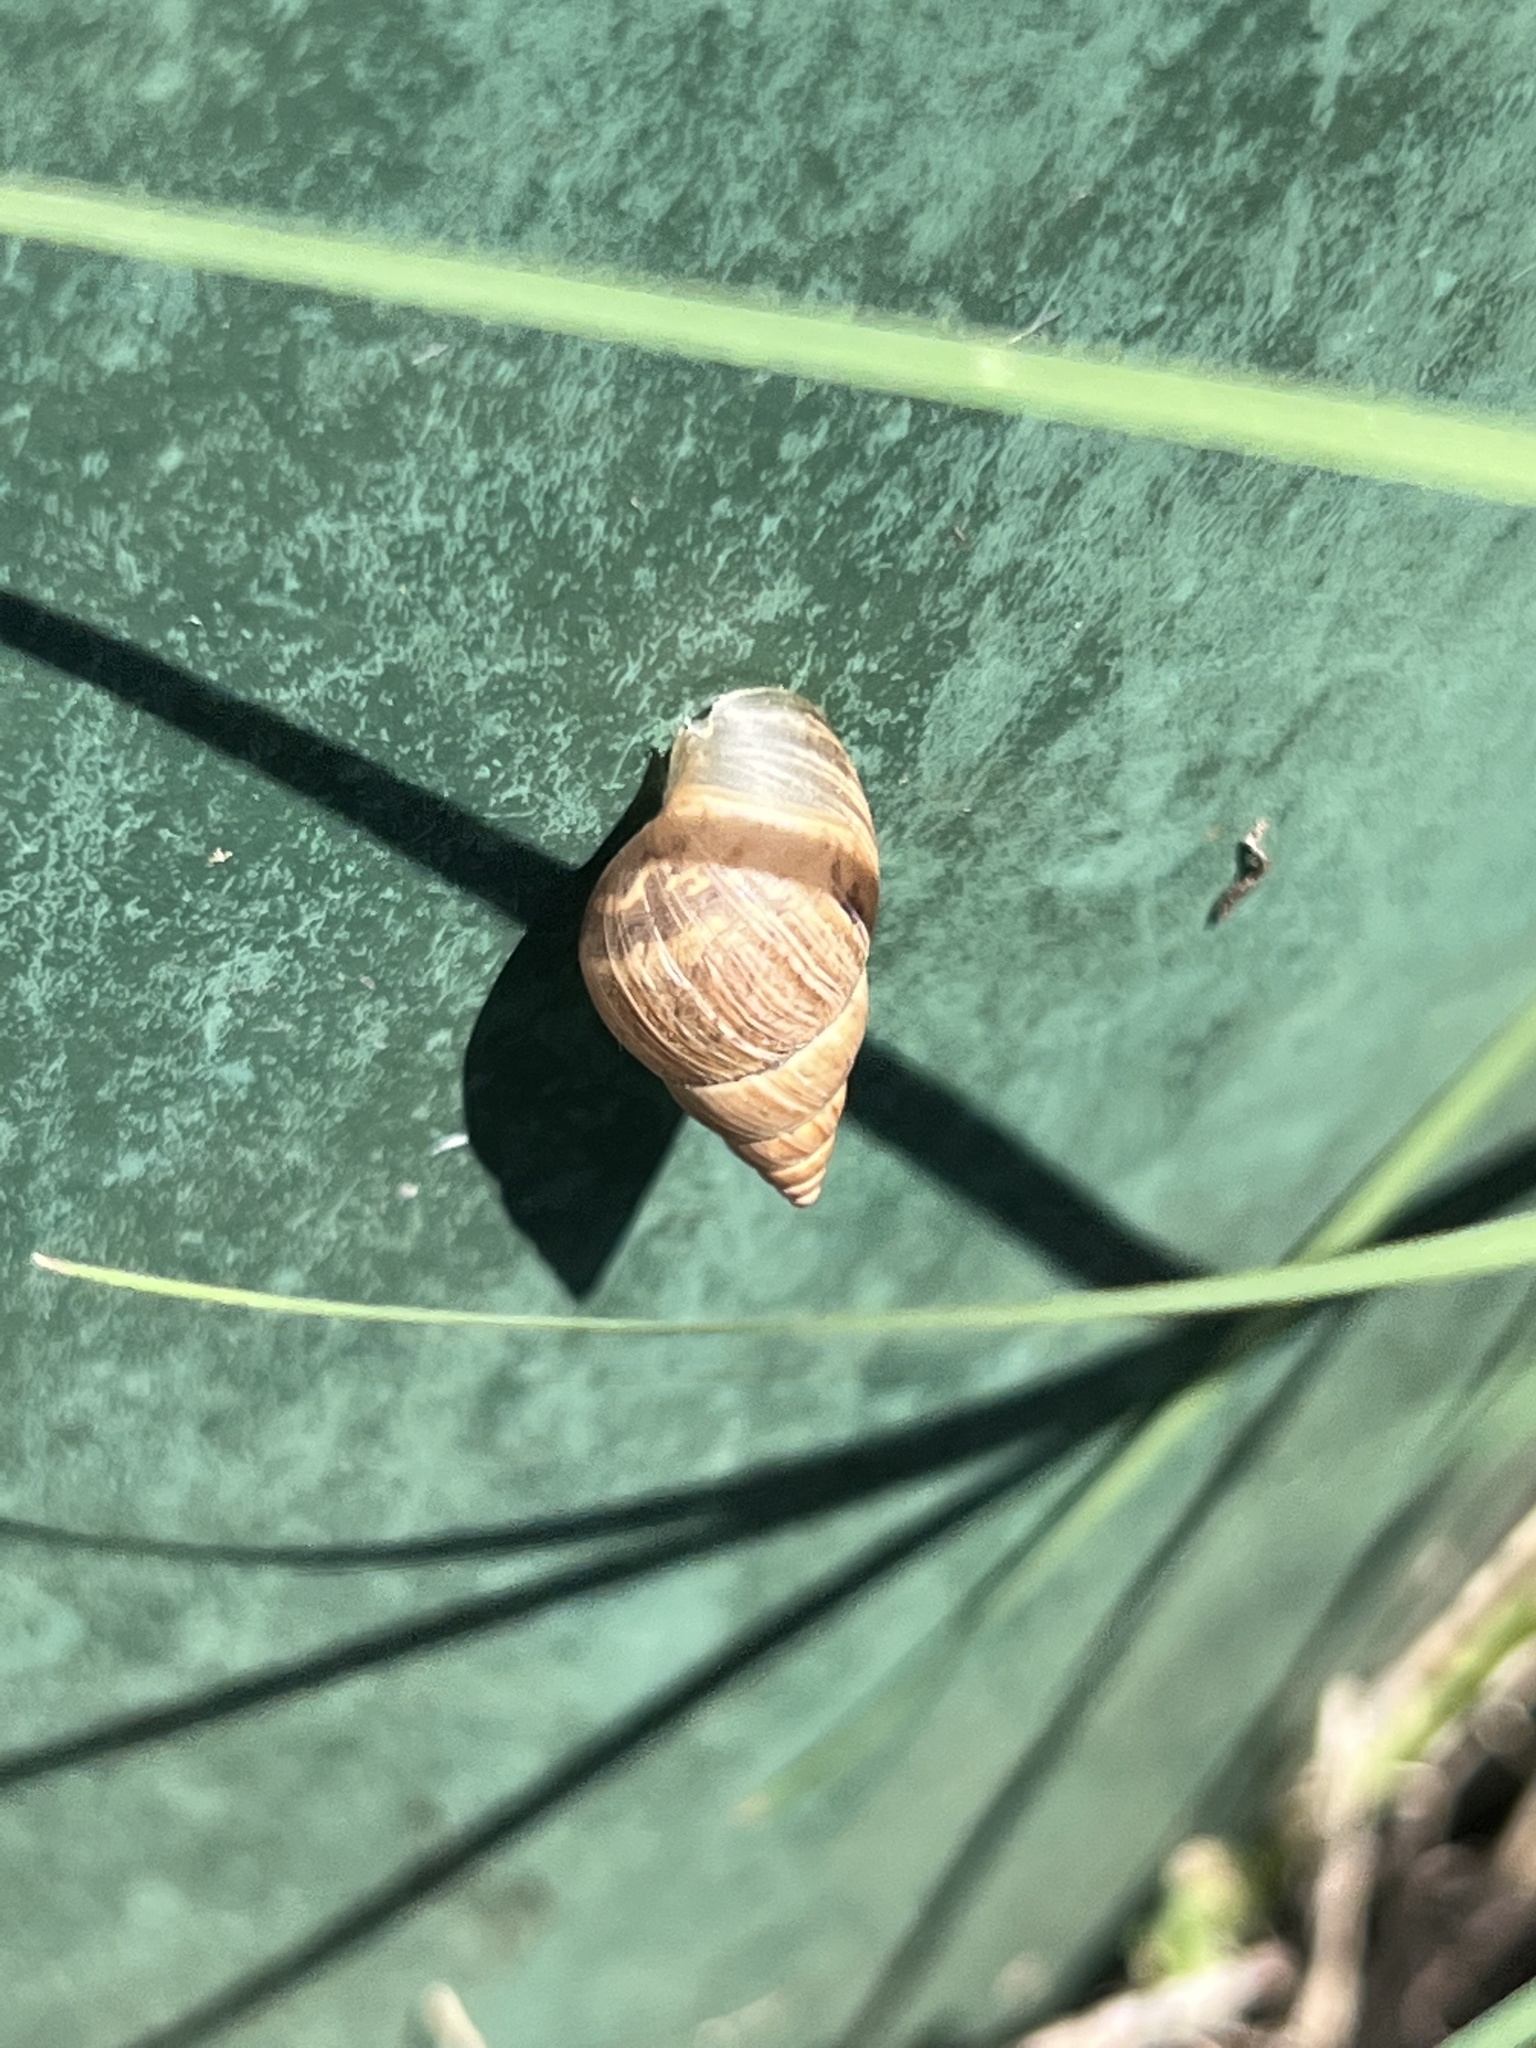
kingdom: Animalia
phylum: Mollusca
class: Gastropoda
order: Stylommatophora
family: Bulimulidae
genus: Bulimulus
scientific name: Bulimulus bonariensis
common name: Snail
